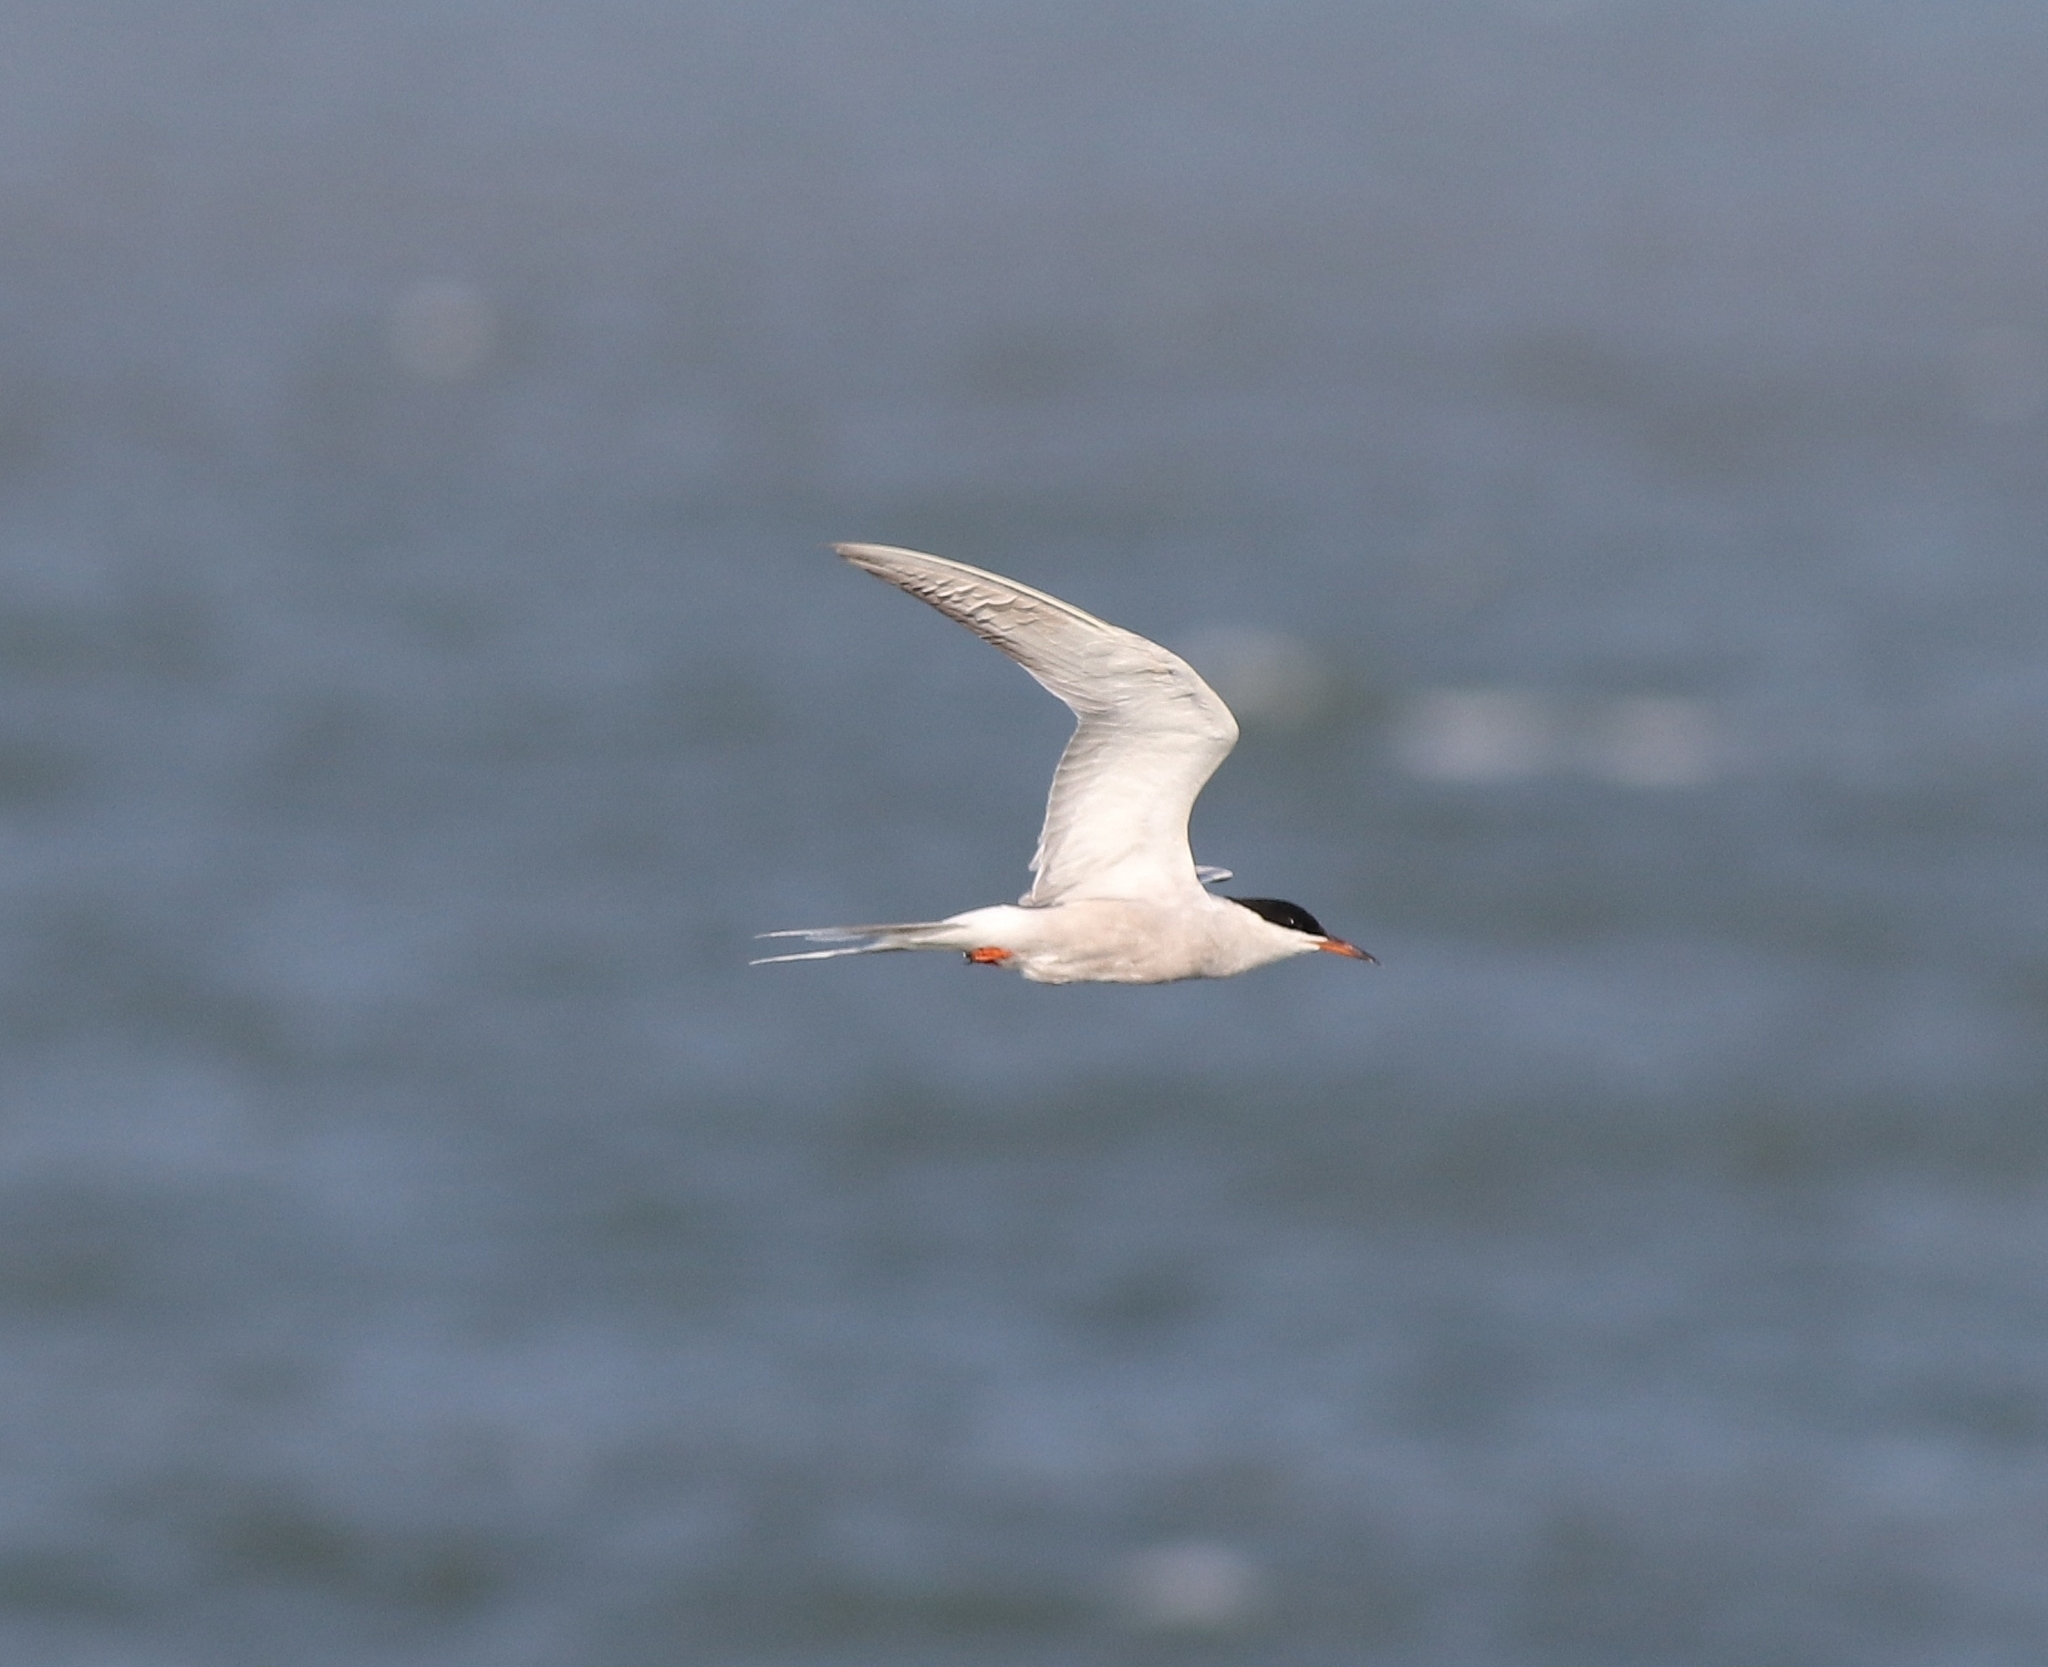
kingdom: Animalia
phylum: Chordata
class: Aves
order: Charadriiformes
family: Laridae
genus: Sterna
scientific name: Sterna hirundo
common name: Common tern
